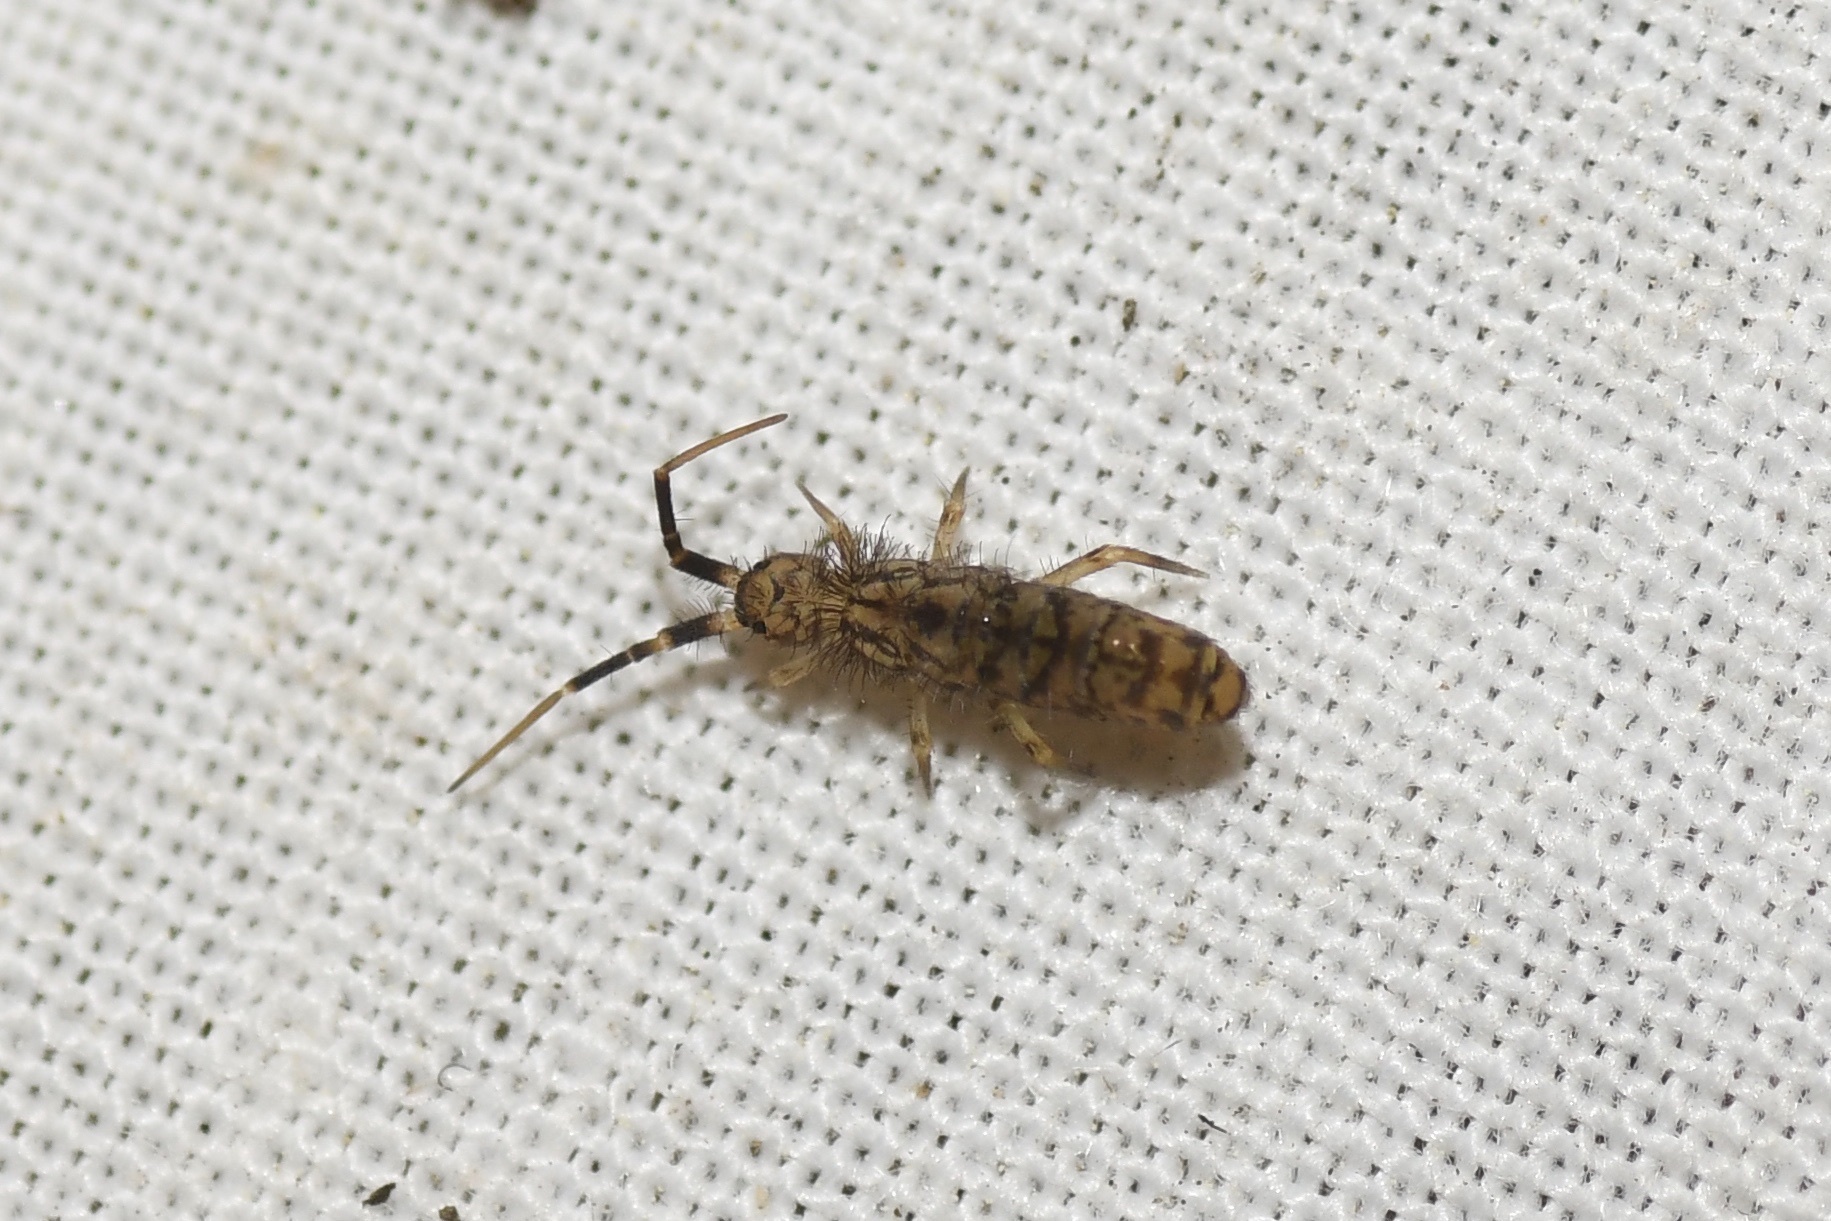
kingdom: Animalia
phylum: Arthropoda
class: Collembola
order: Entomobryomorpha
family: Orchesellidae
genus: Orchesella
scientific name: Orchesella villosa
